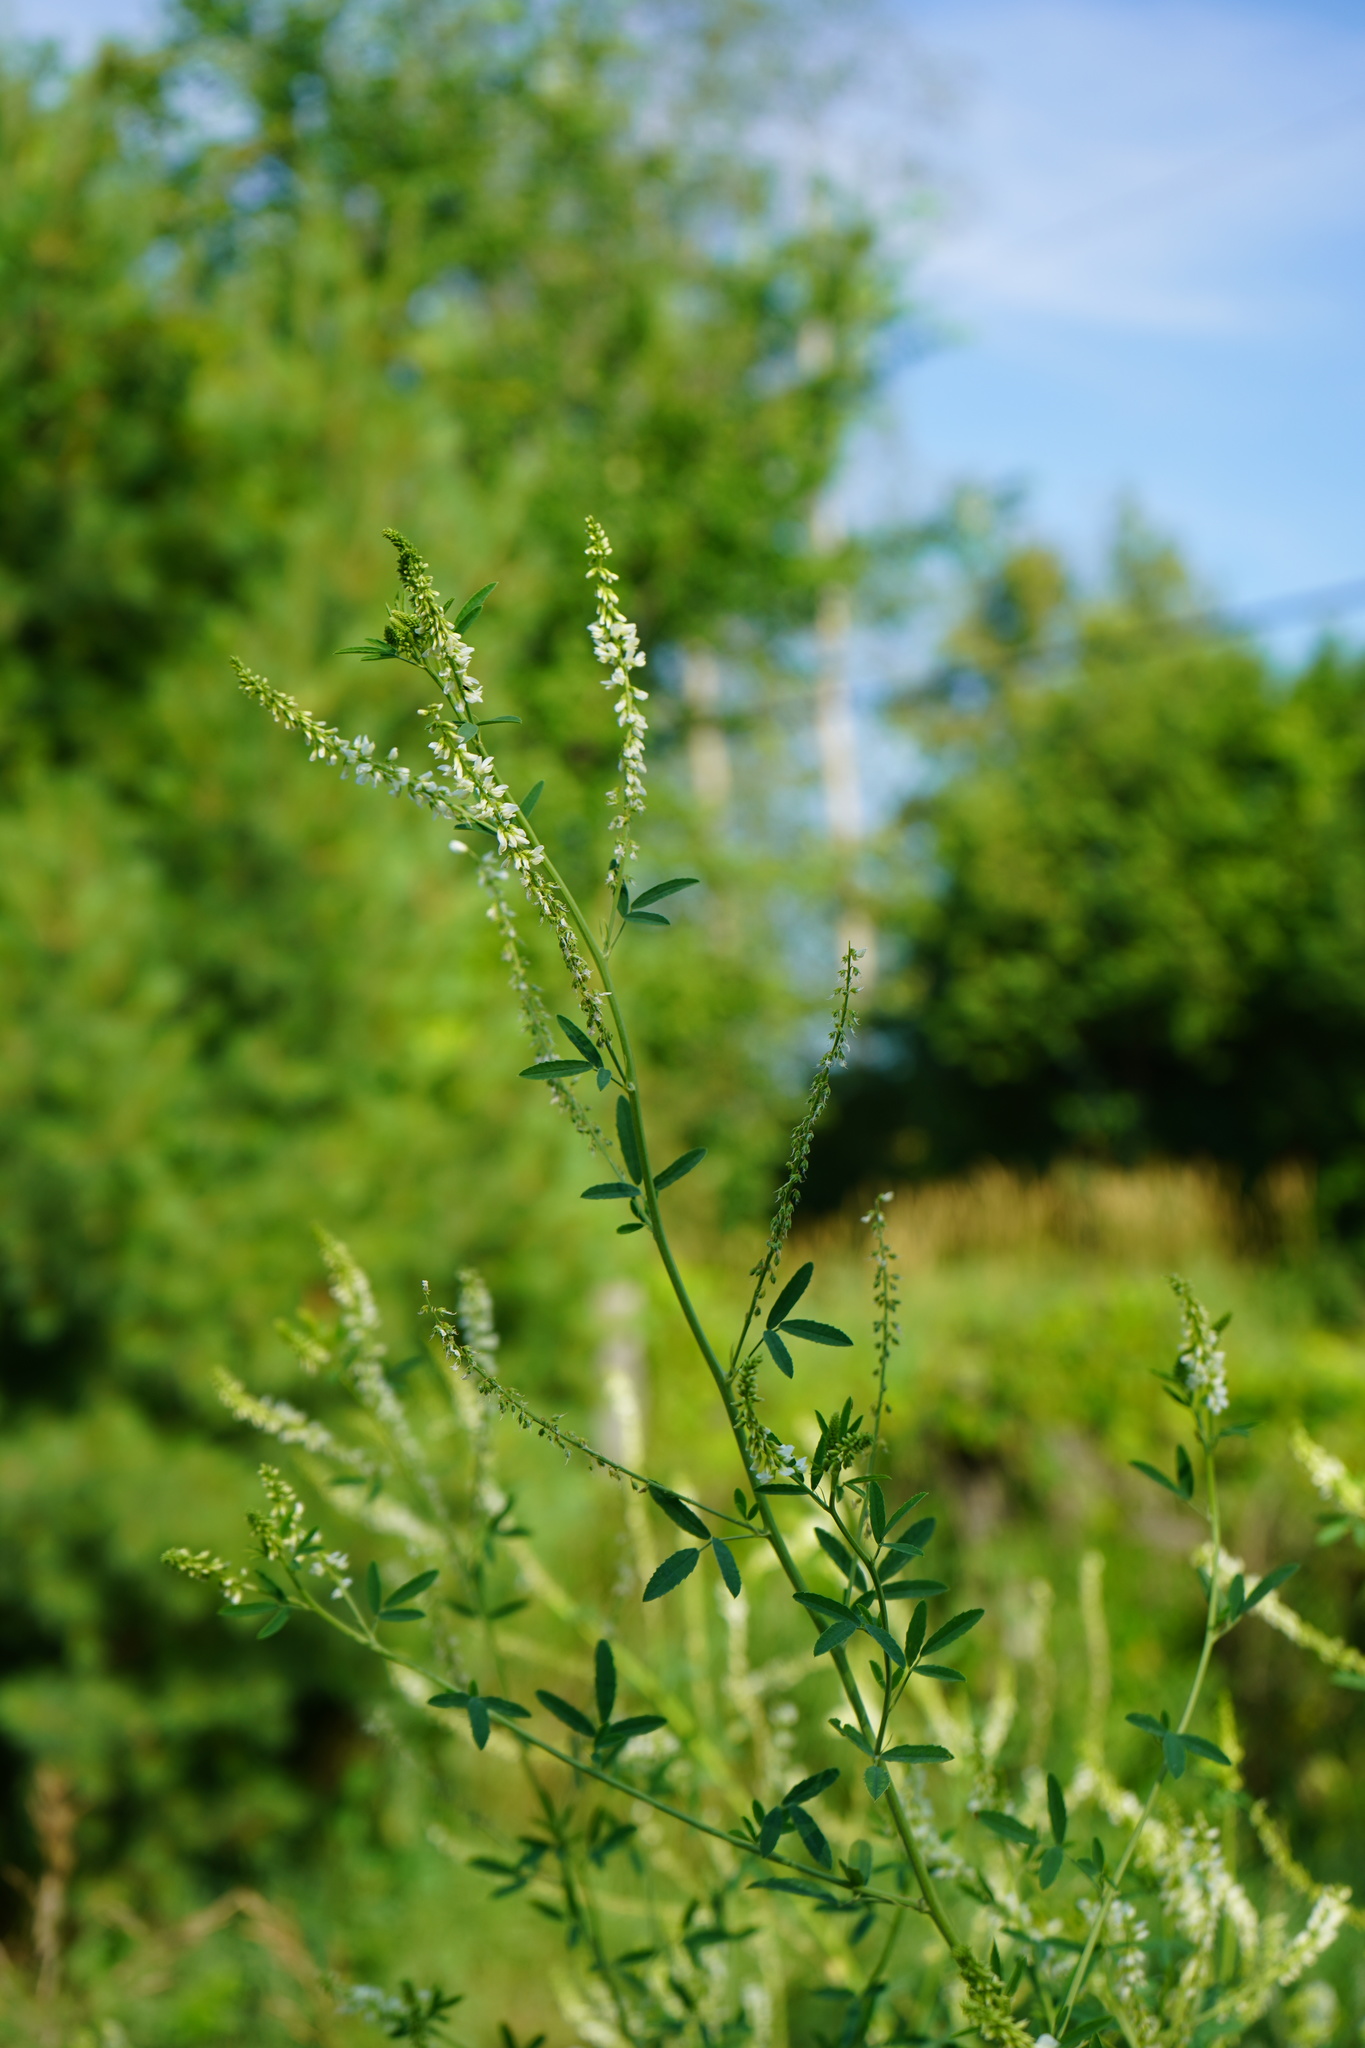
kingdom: Plantae
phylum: Tracheophyta
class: Magnoliopsida
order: Fabales
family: Fabaceae
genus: Melilotus
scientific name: Melilotus albus
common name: White melilot
